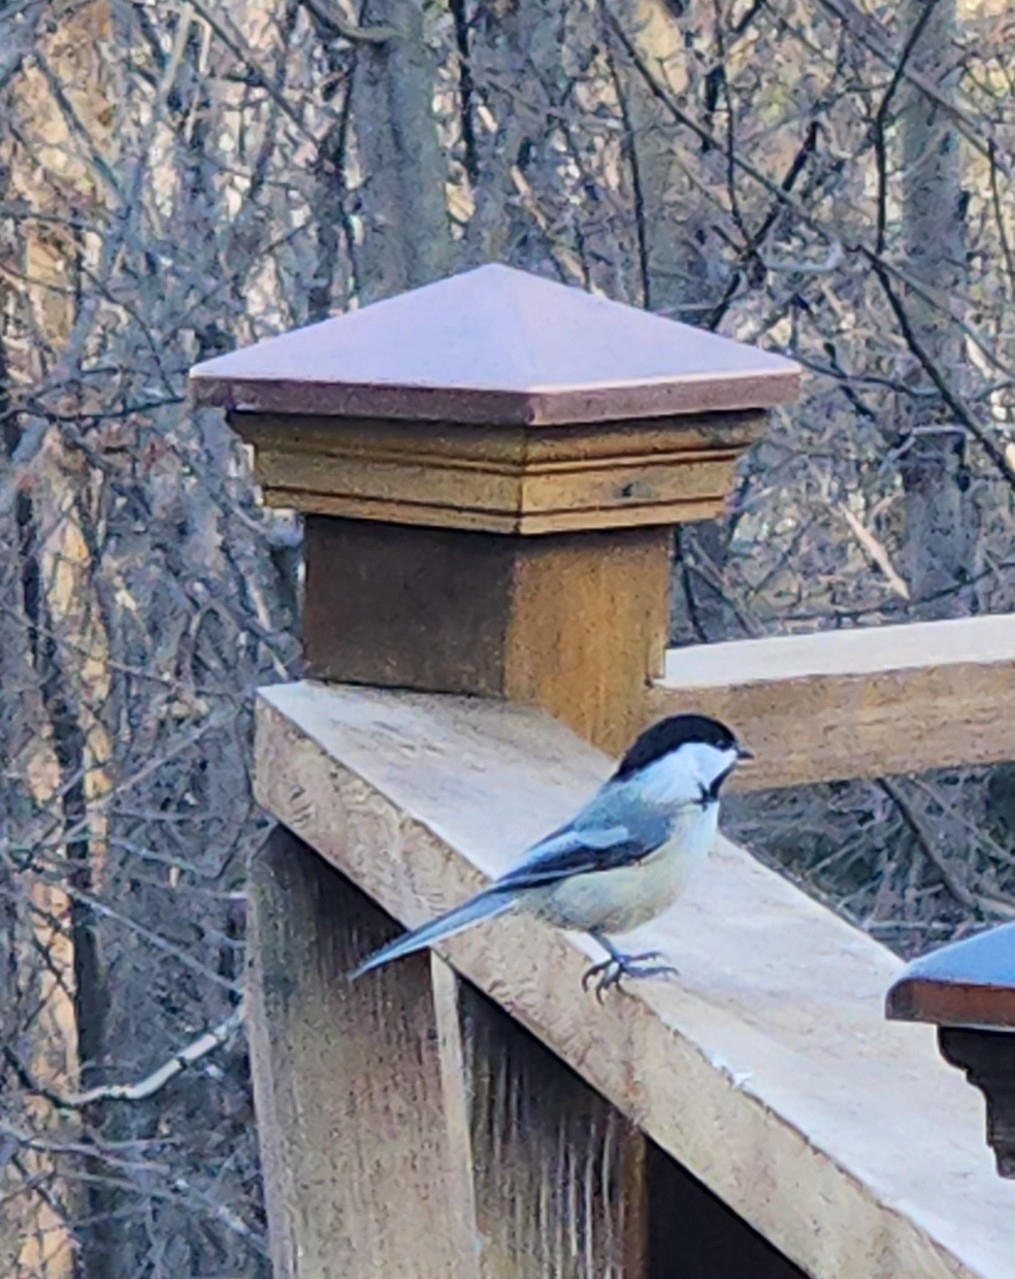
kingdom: Animalia
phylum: Chordata
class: Aves
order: Passeriformes
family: Paridae
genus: Poecile
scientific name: Poecile atricapillus
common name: Black-capped chickadee
